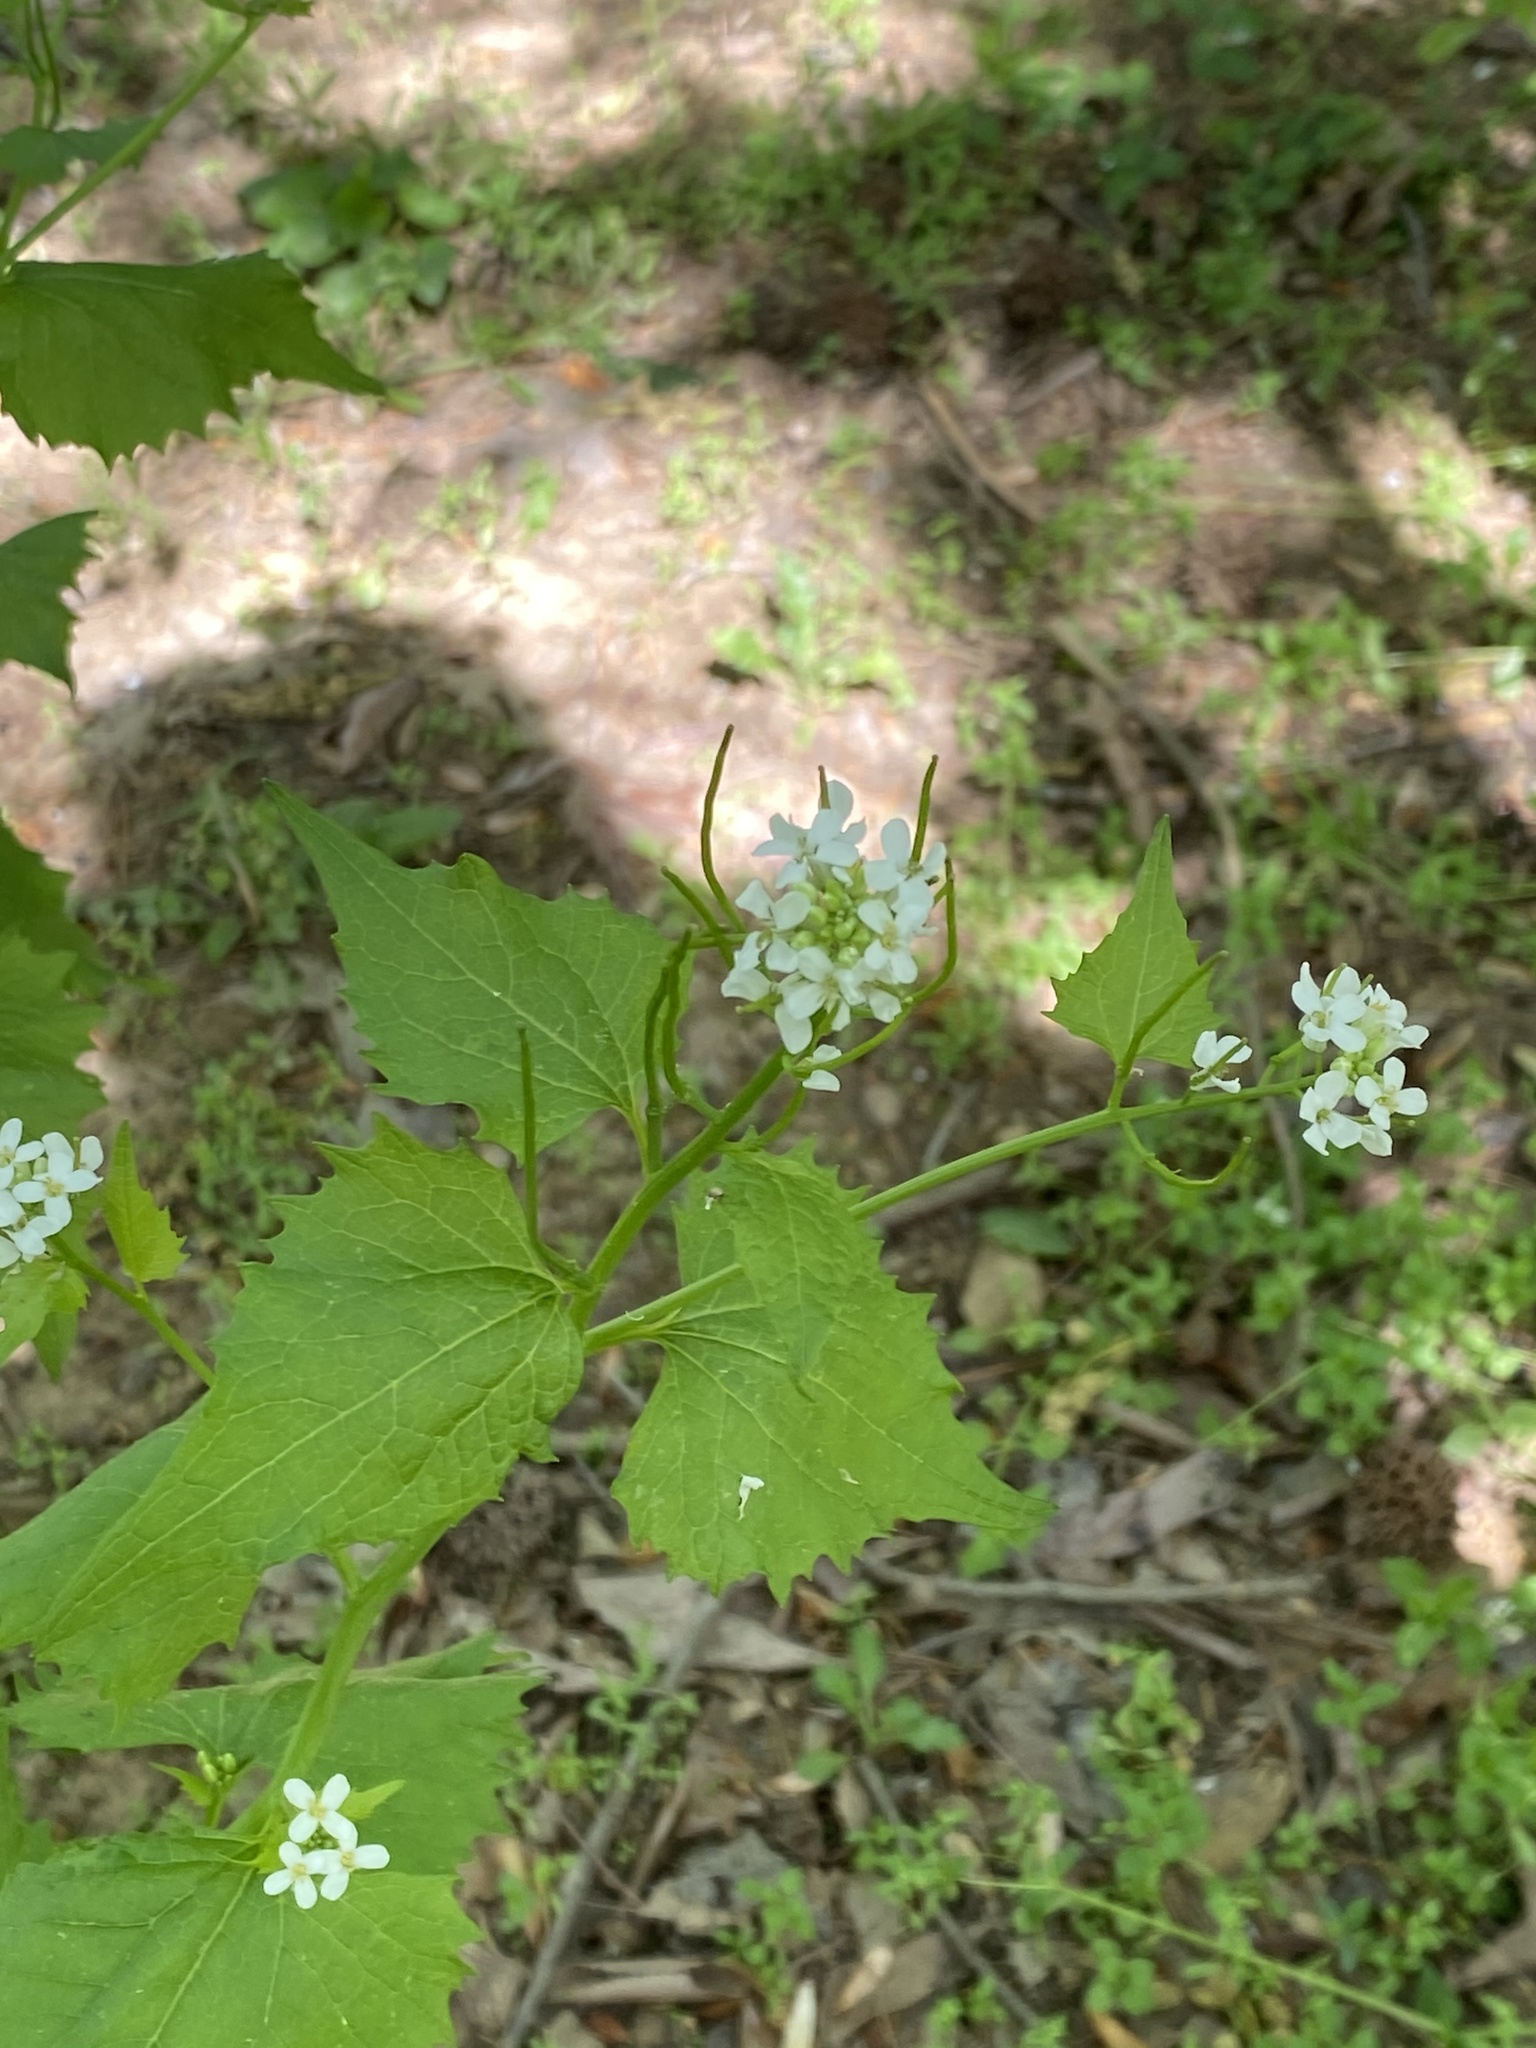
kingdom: Plantae
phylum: Tracheophyta
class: Magnoliopsida
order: Brassicales
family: Brassicaceae
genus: Alliaria
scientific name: Alliaria petiolata
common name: Garlic mustard
